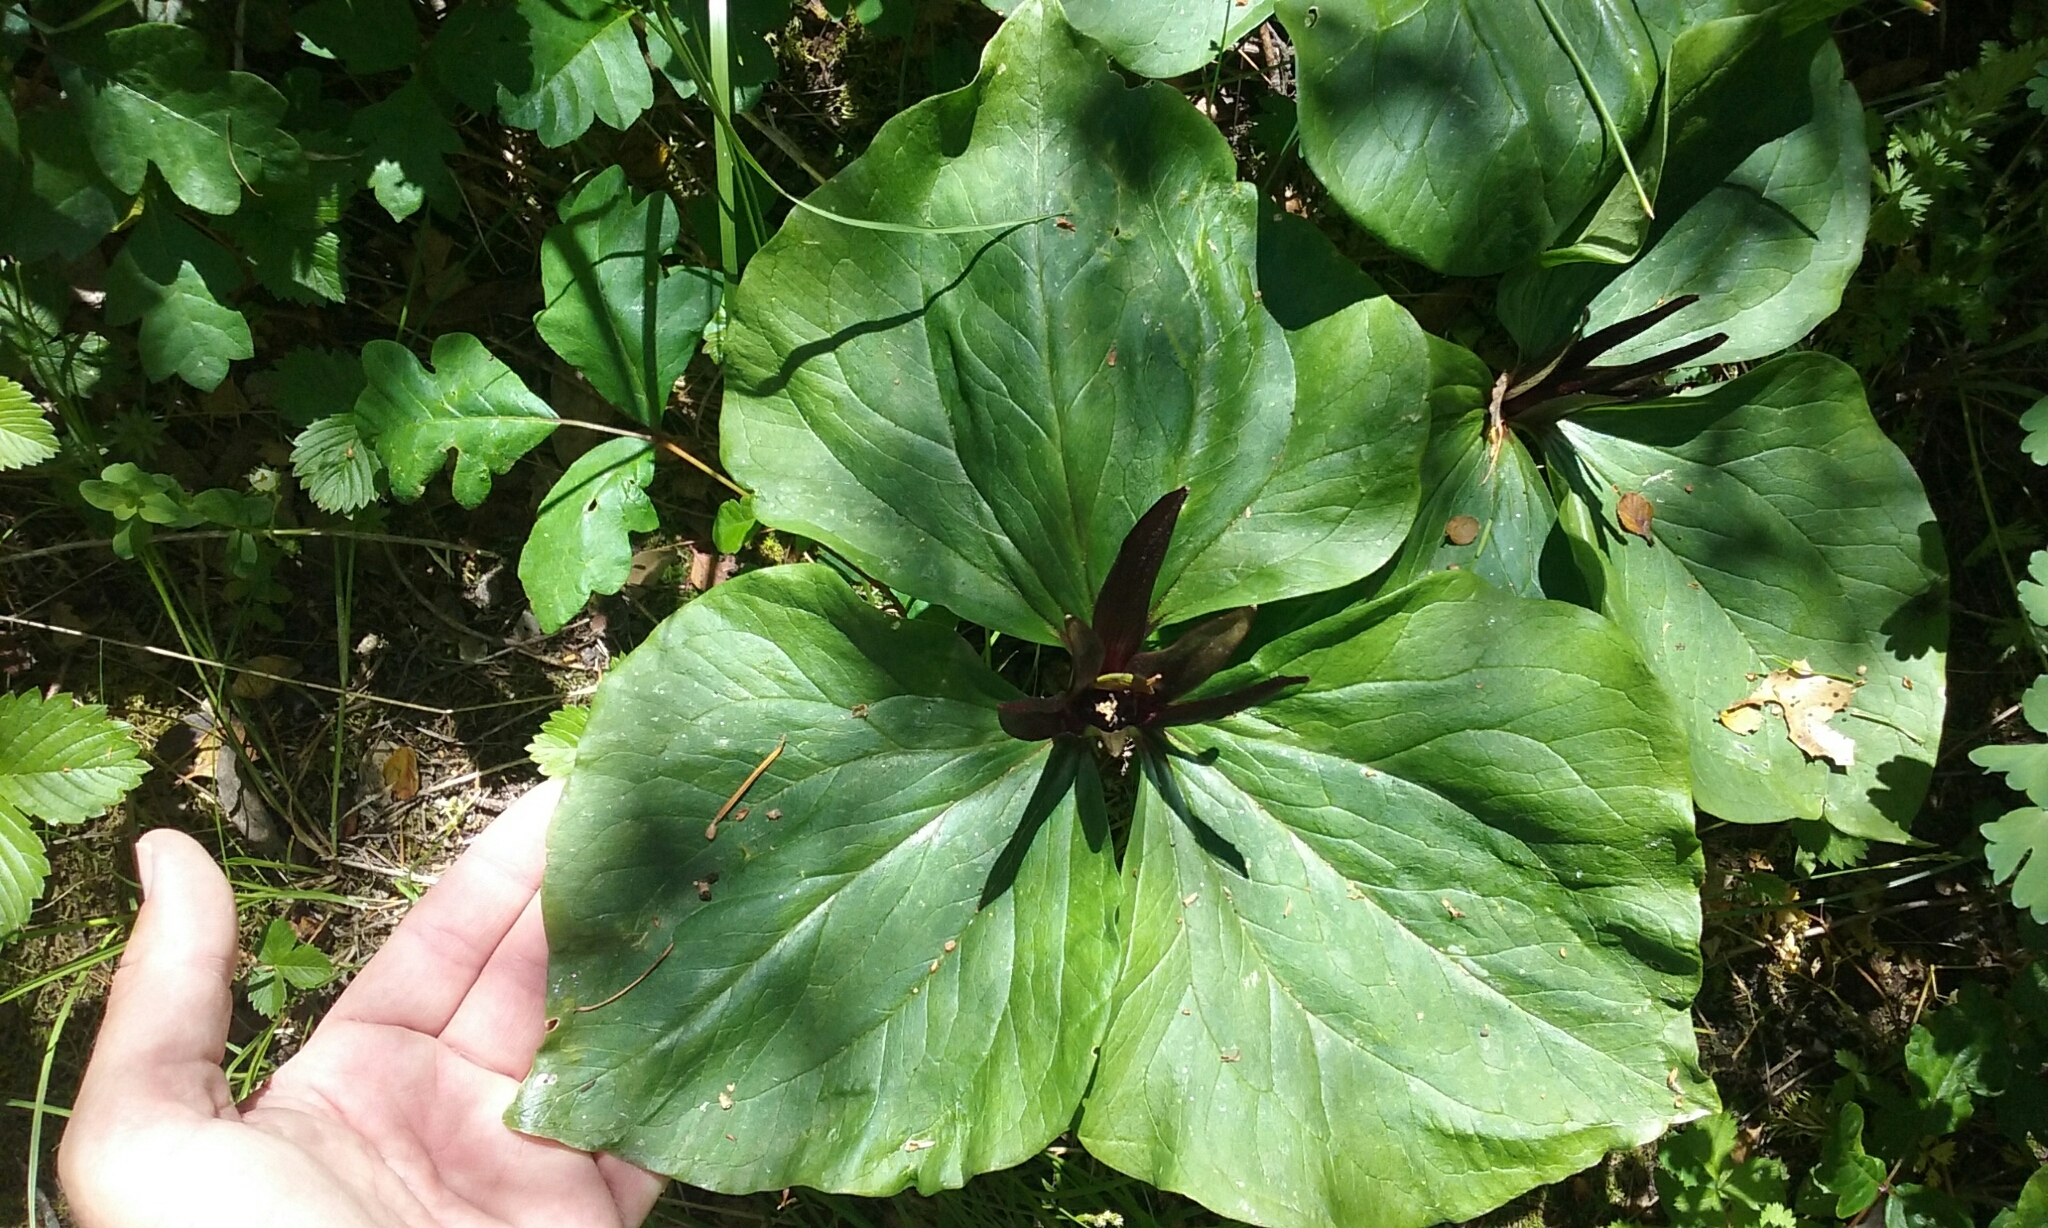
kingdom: Plantae
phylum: Tracheophyta
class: Liliopsida
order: Liliales
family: Melanthiaceae
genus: Trillium
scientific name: Trillium chloropetalum
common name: Giant trillium
